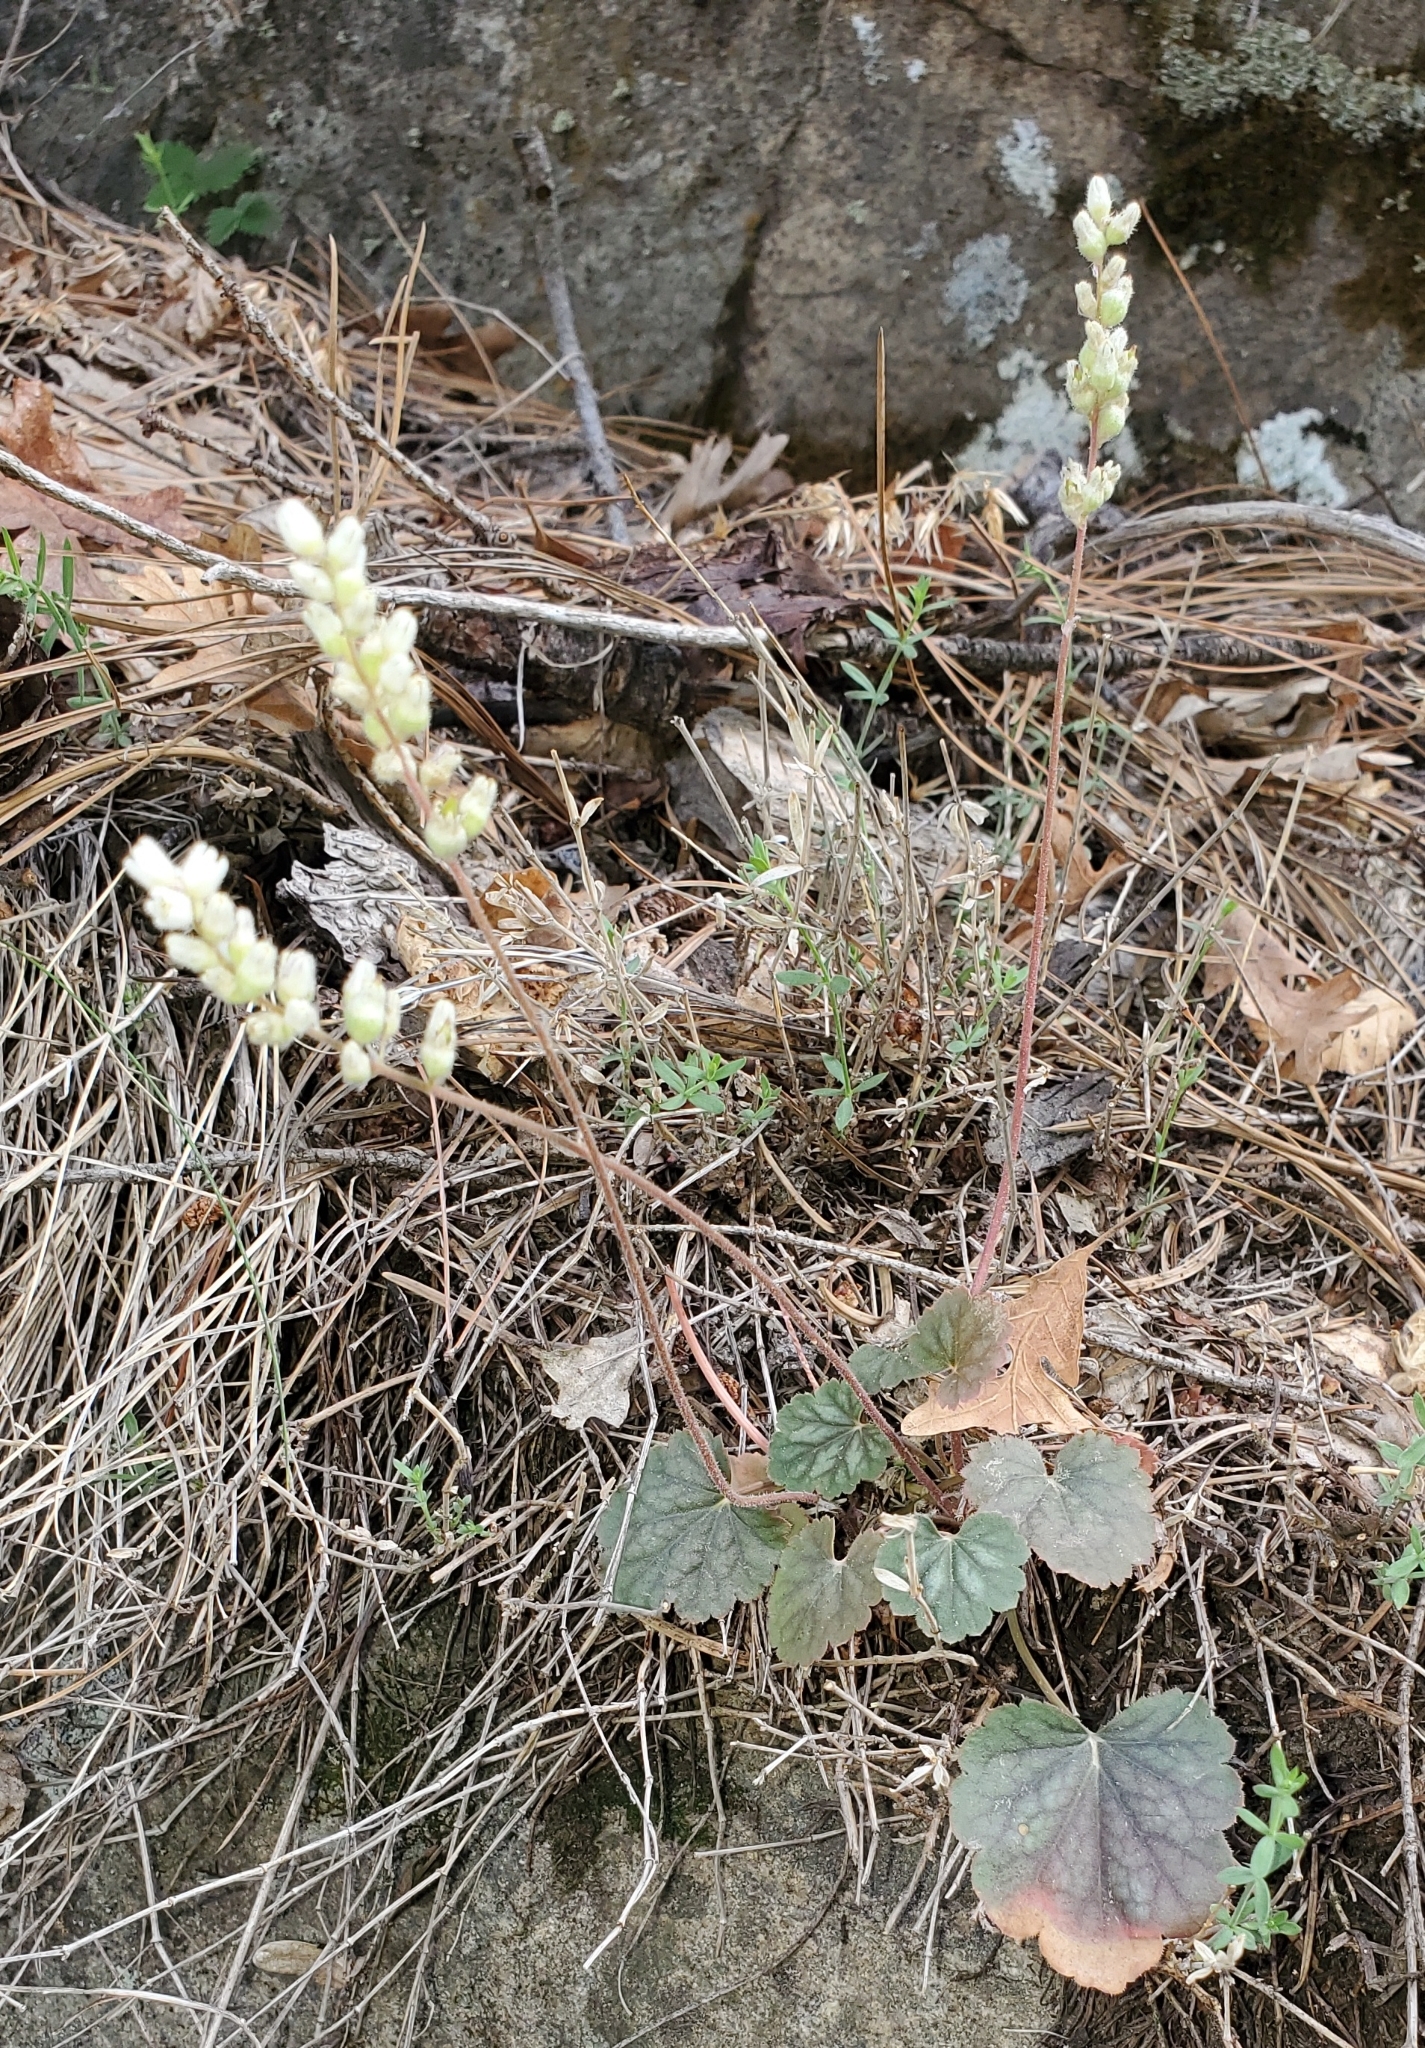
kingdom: Plantae
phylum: Tracheophyta
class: Magnoliopsida
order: Saxifragales
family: Saxifragaceae
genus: Heuchera
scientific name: Heuchera glomerulata
